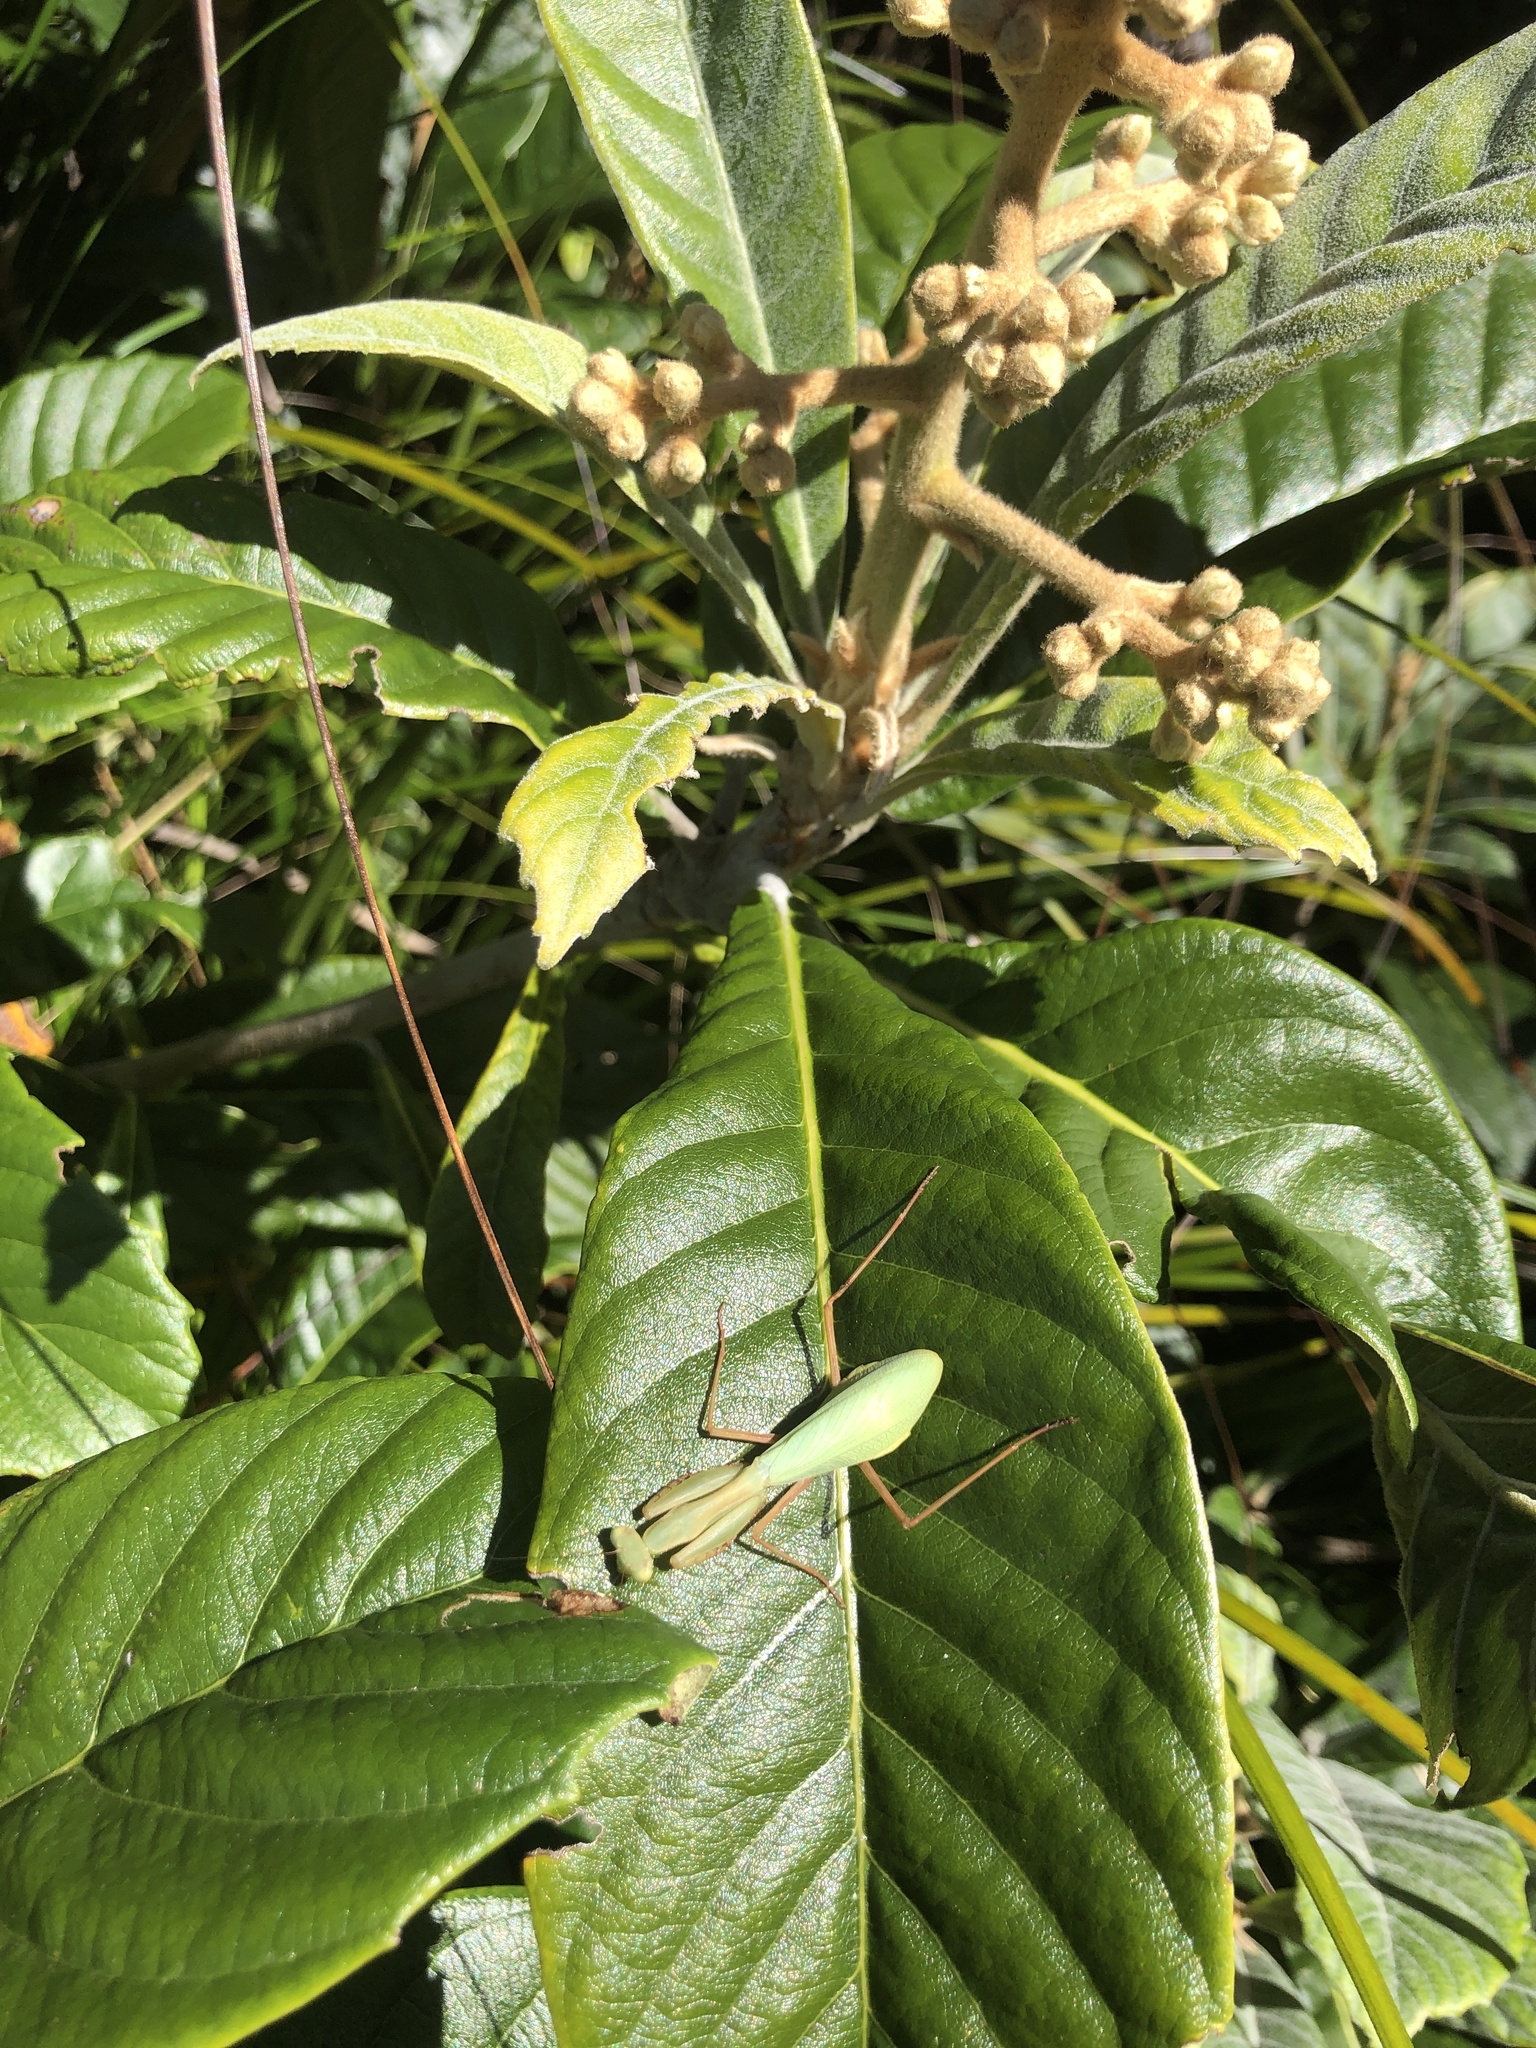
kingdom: Plantae
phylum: Tracheophyta
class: Magnoliopsida
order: Rosales
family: Rosaceae
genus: Rhaphiolepis
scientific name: Rhaphiolepis bibas
